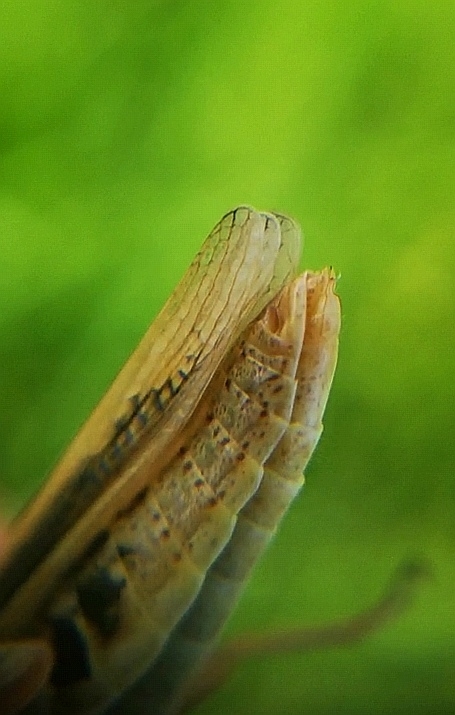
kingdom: Animalia
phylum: Arthropoda
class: Insecta
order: Orthoptera
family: Acrididae
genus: Chorthippus
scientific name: Chorthippus albomarginatus
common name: Lesser marsh grasshopper
